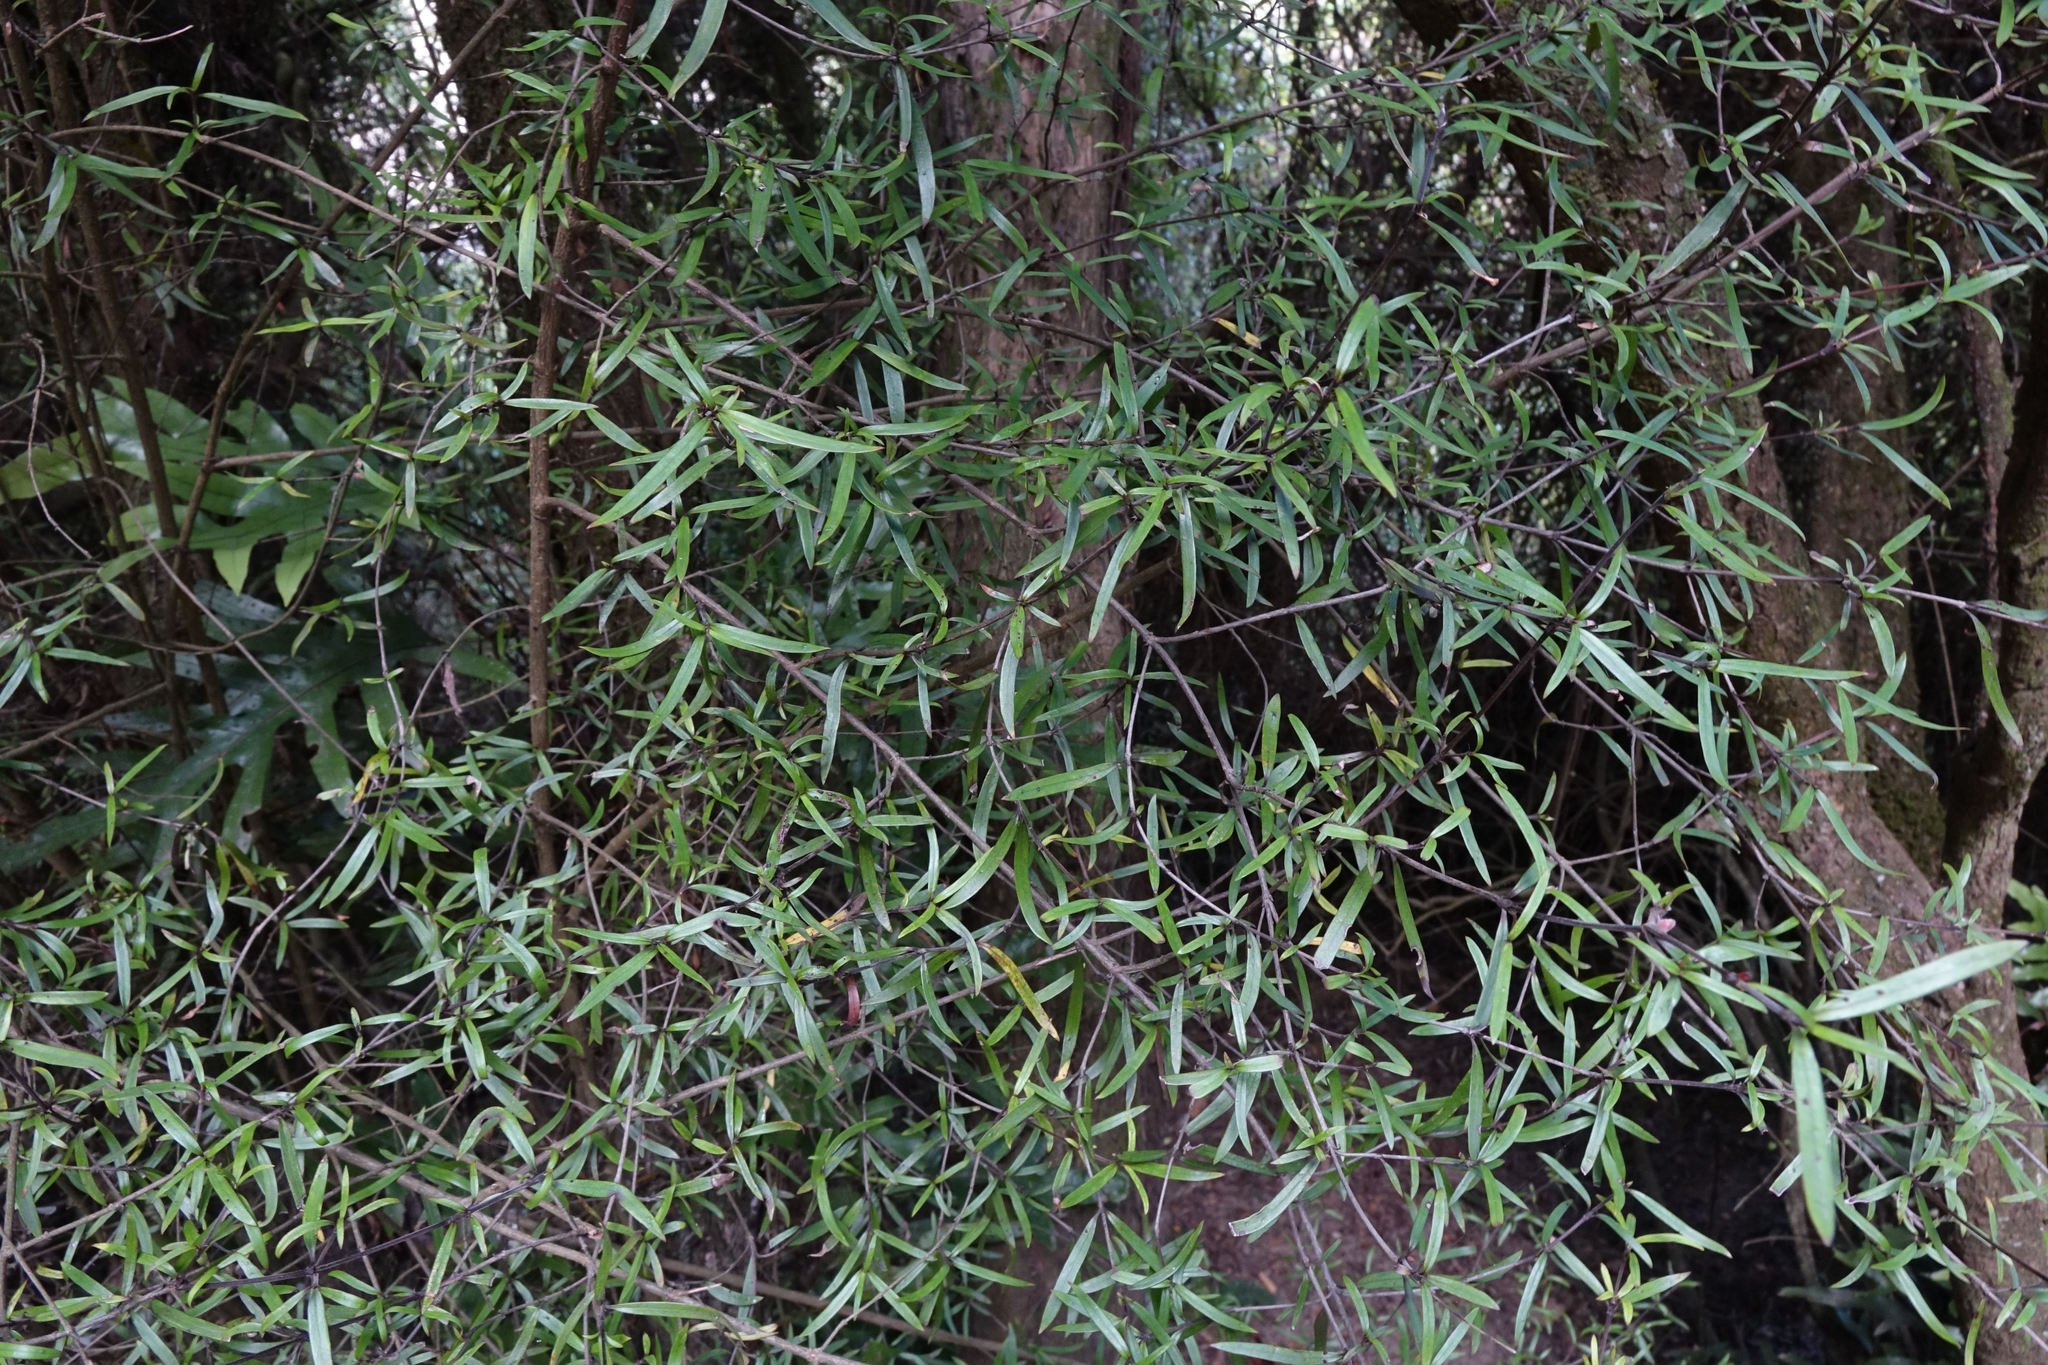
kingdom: Plantae
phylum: Tracheophyta
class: Magnoliopsida
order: Gentianales
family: Rubiaceae
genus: Coprosma
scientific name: Coprosma linariifolia
